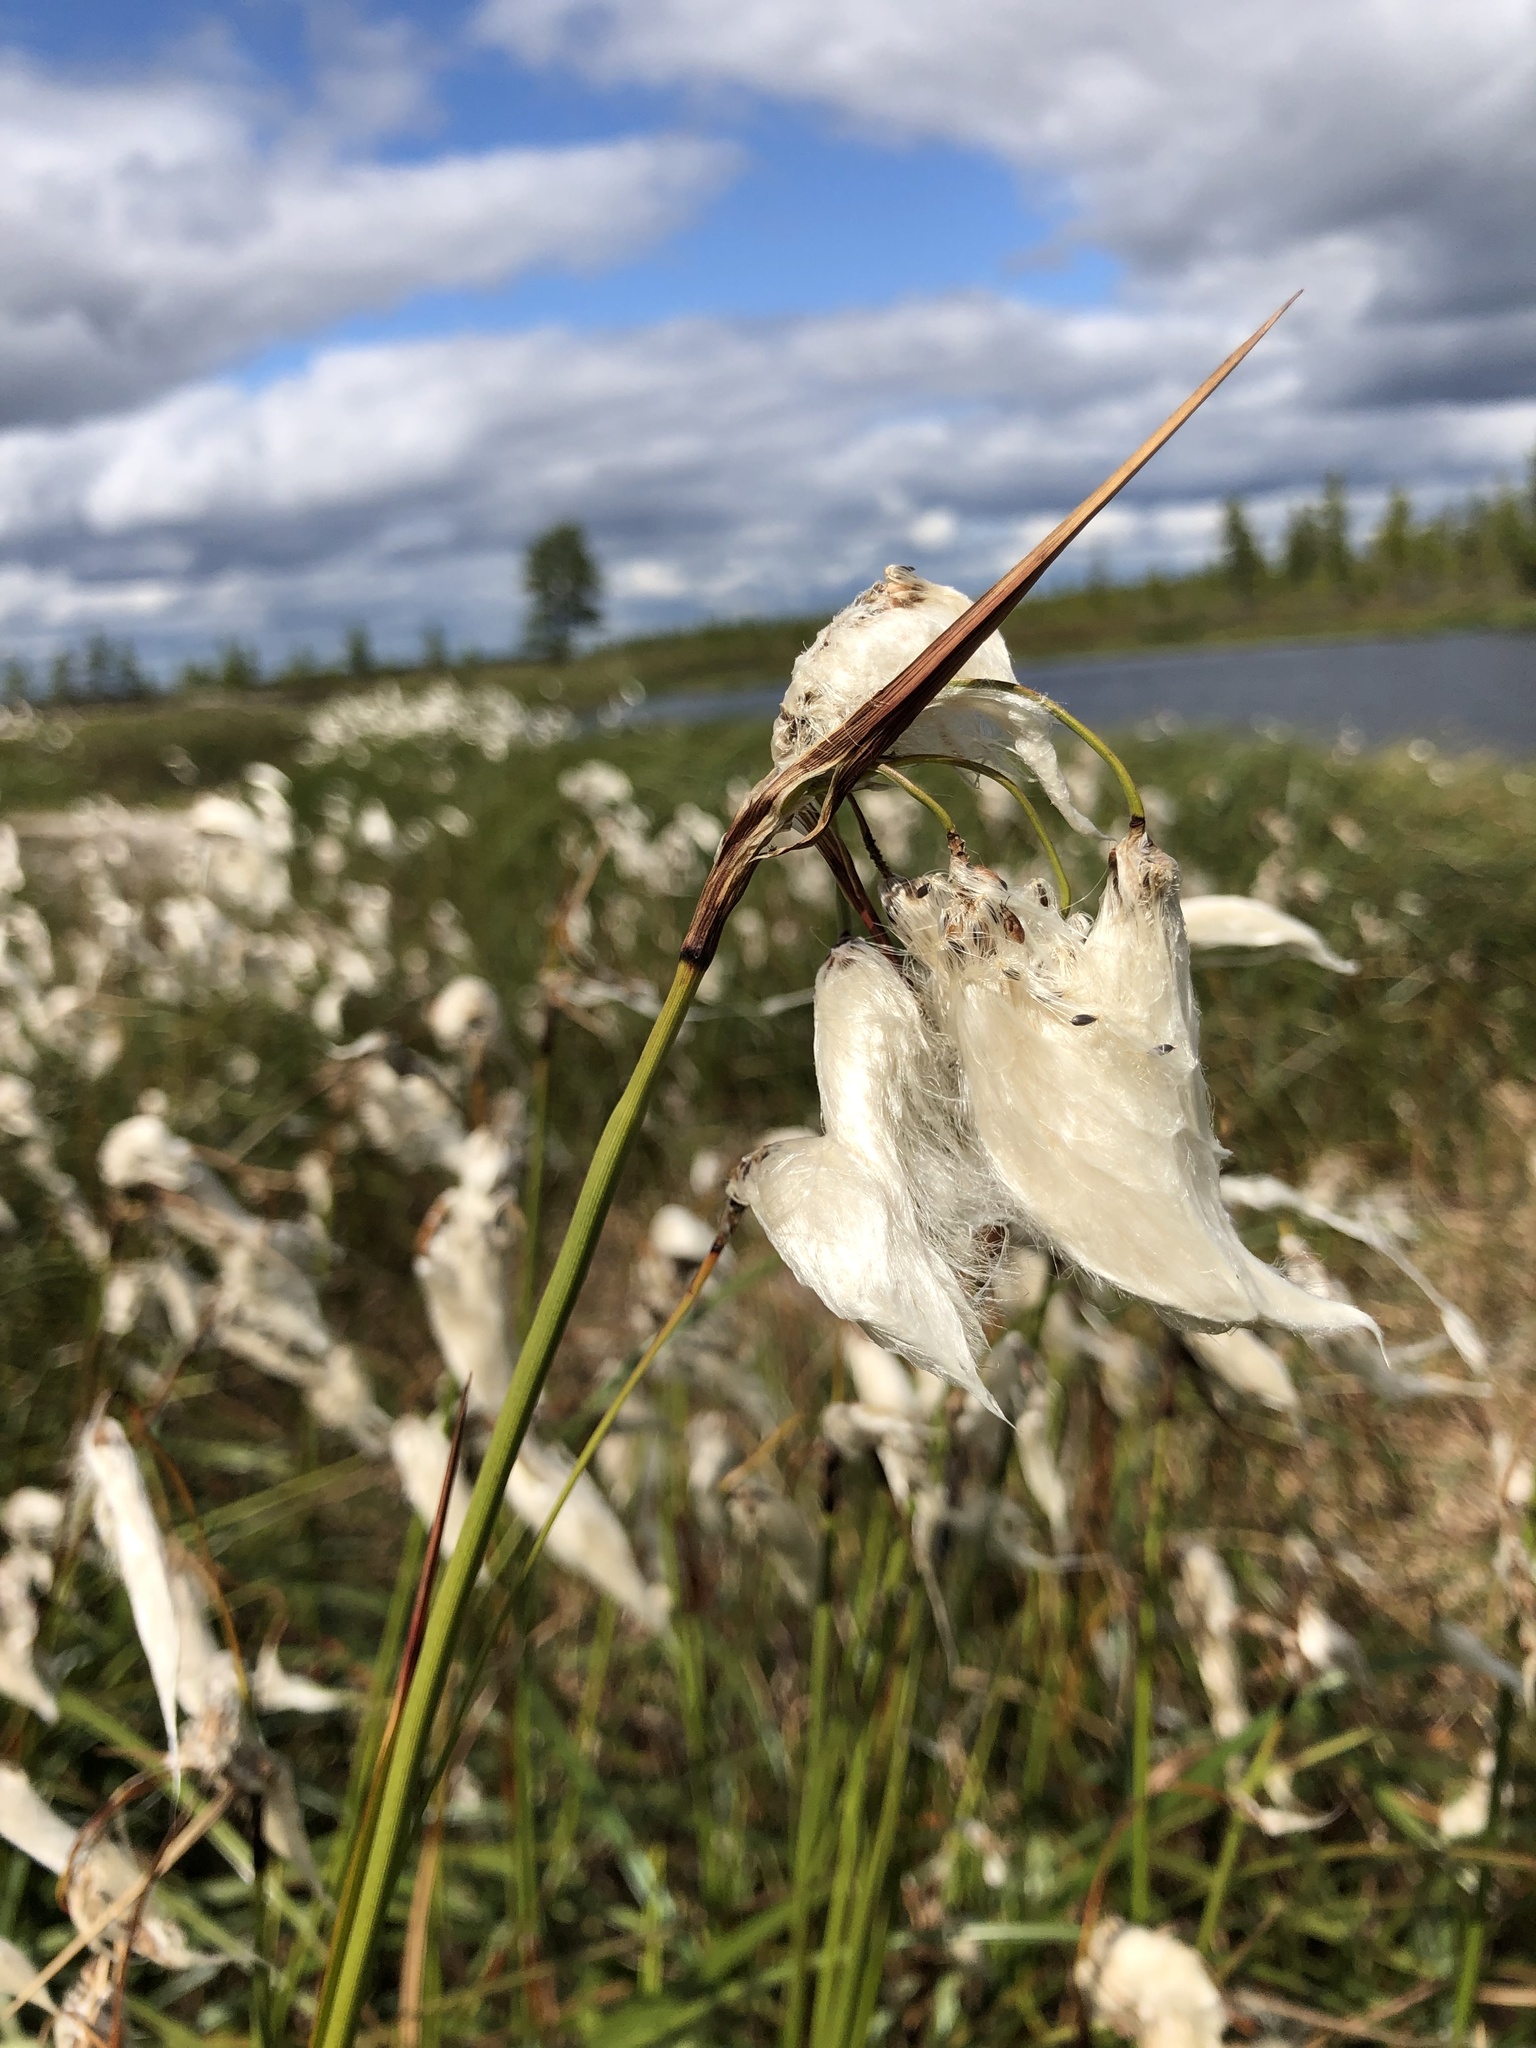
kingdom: Plantae
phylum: Tracheophyta
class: Liliopsida
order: Poales
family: Cyperaceae
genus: Eriophorum
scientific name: Eriophorum angustifolium
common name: Common cottongrass
